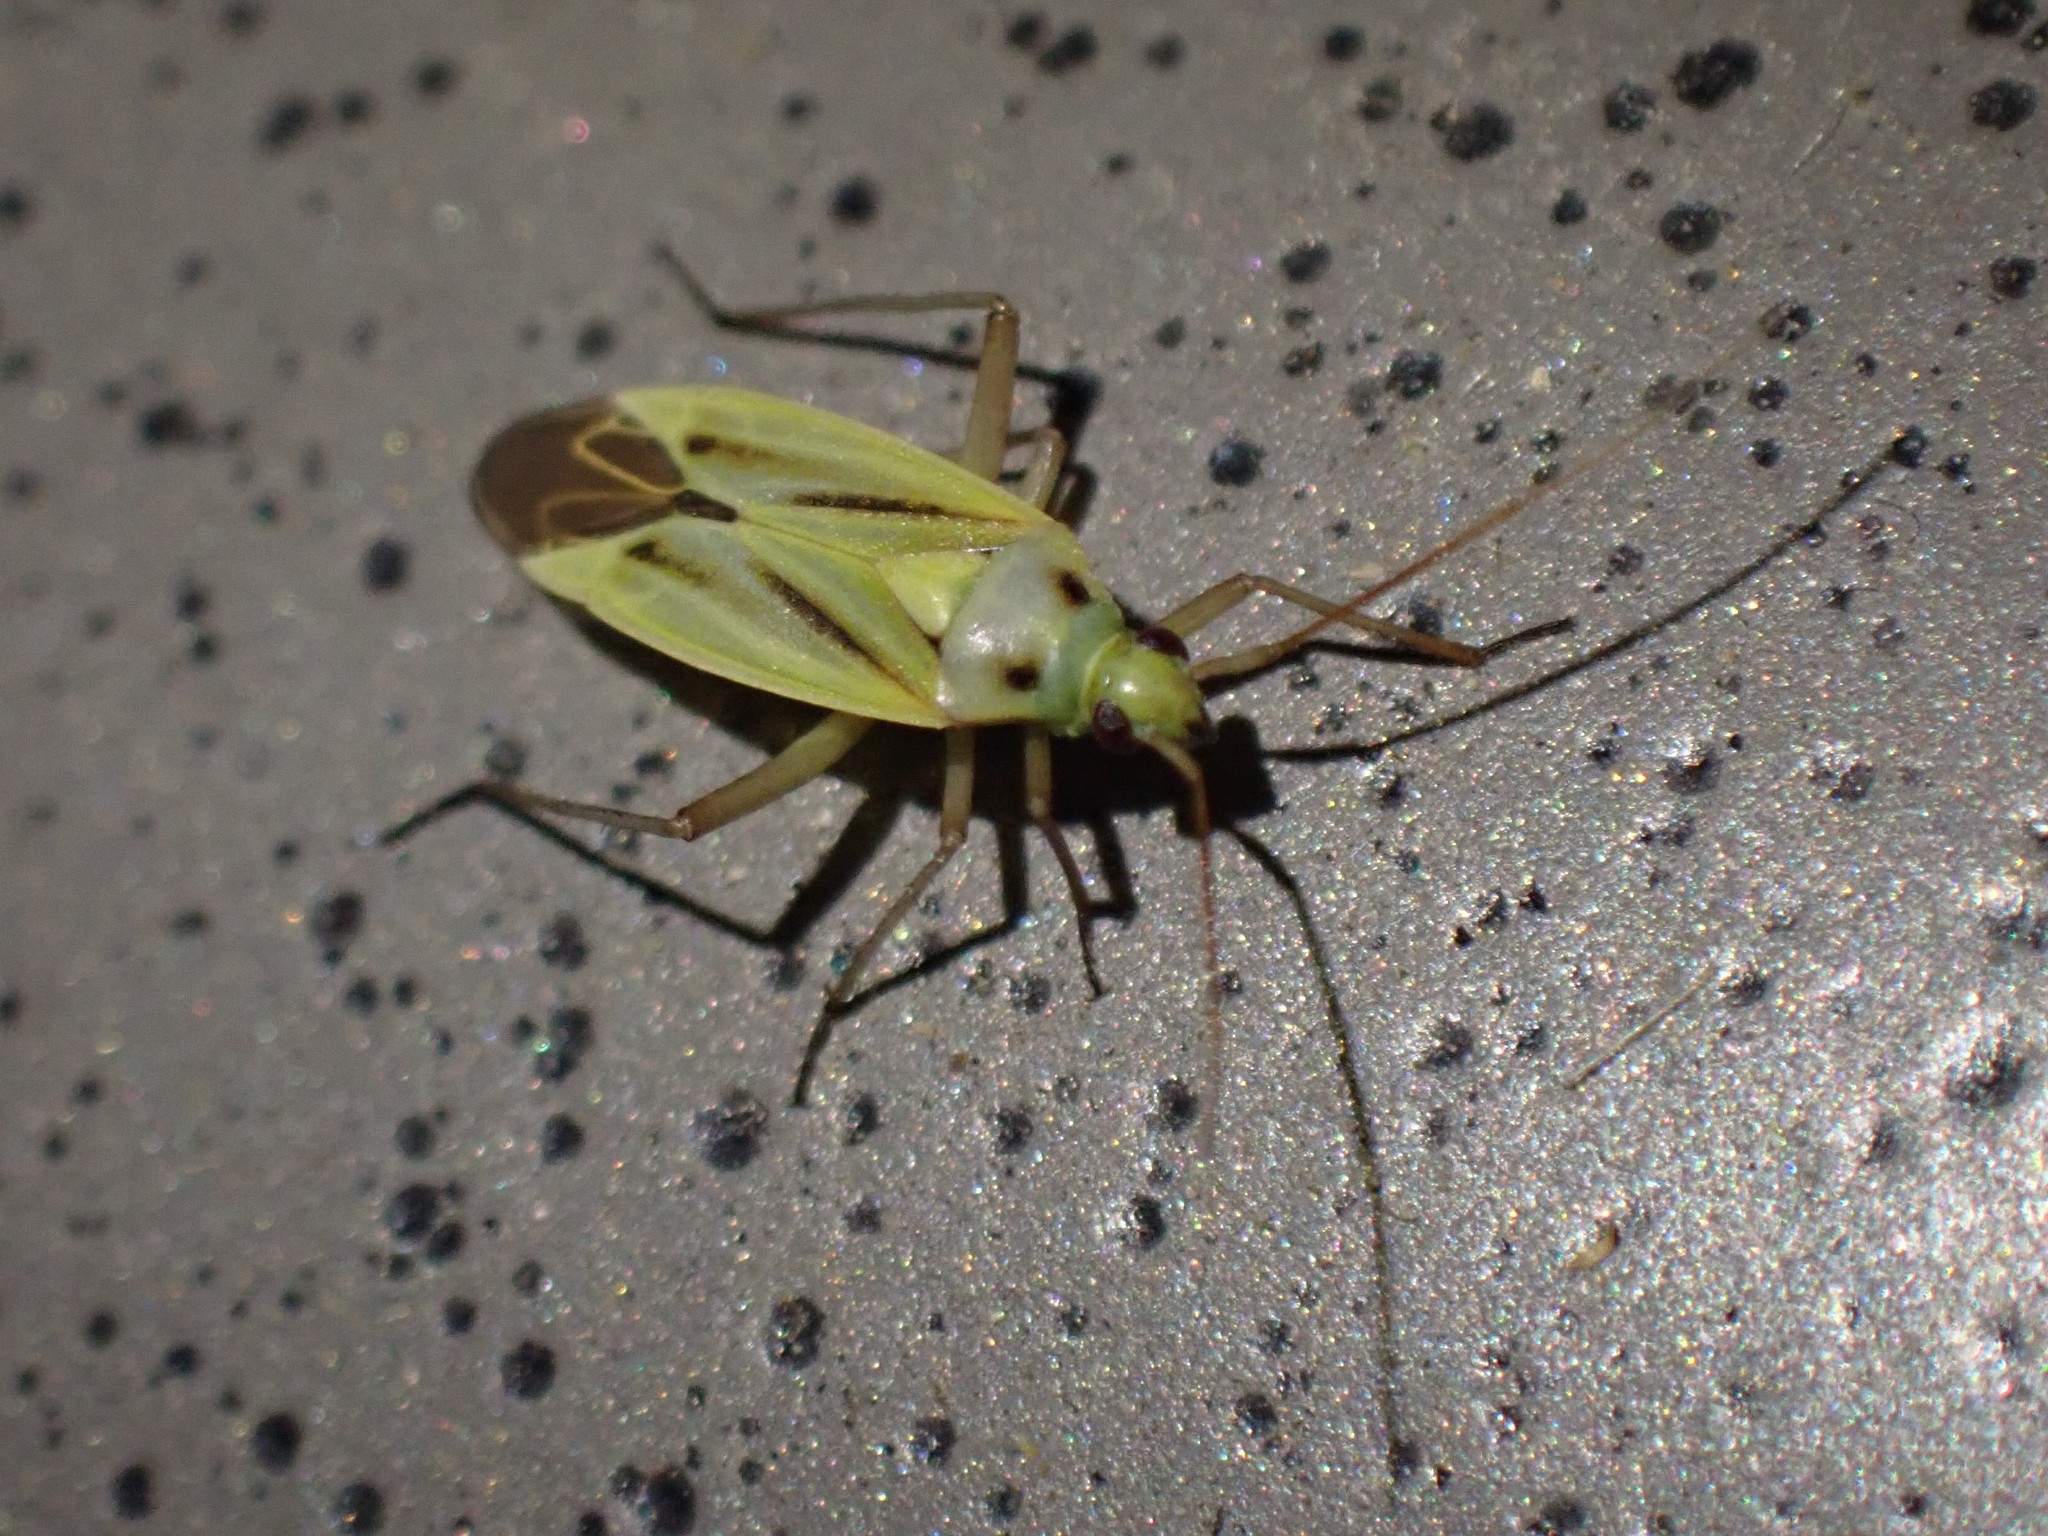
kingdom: Animalia
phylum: Arthropoda
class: Insecta
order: Hemiptera
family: Miridae
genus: Stenotus
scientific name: Stenotus binotatus
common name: Plant bug
